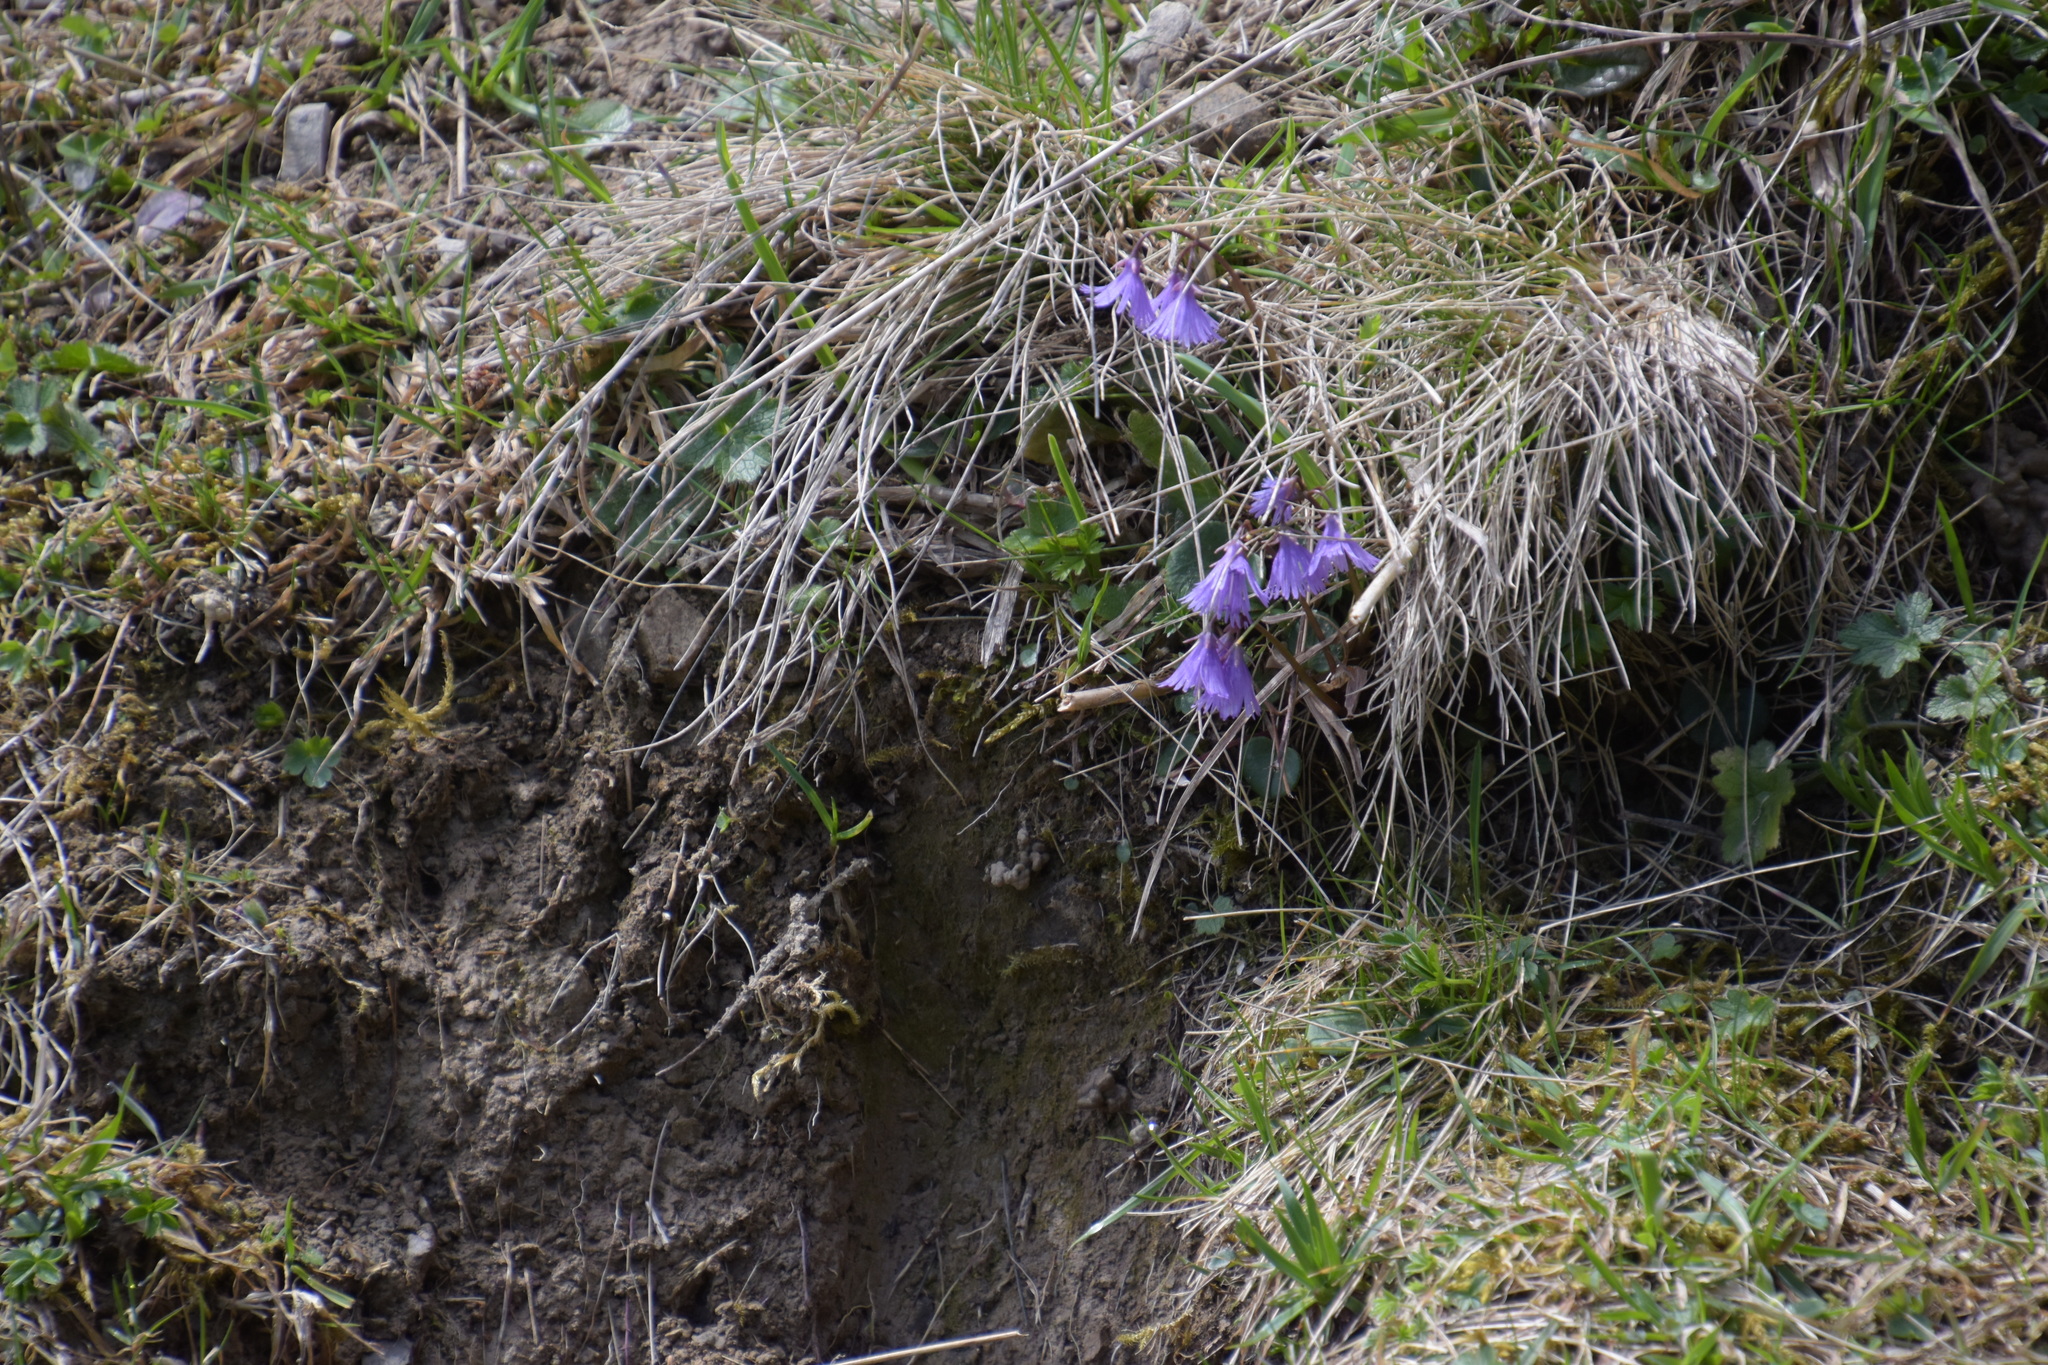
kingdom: Plantae
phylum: Tracheophyta
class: Magnoliopsida
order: Ericales
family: Primulaceae
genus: Soldanella
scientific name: Soldanella alpina
